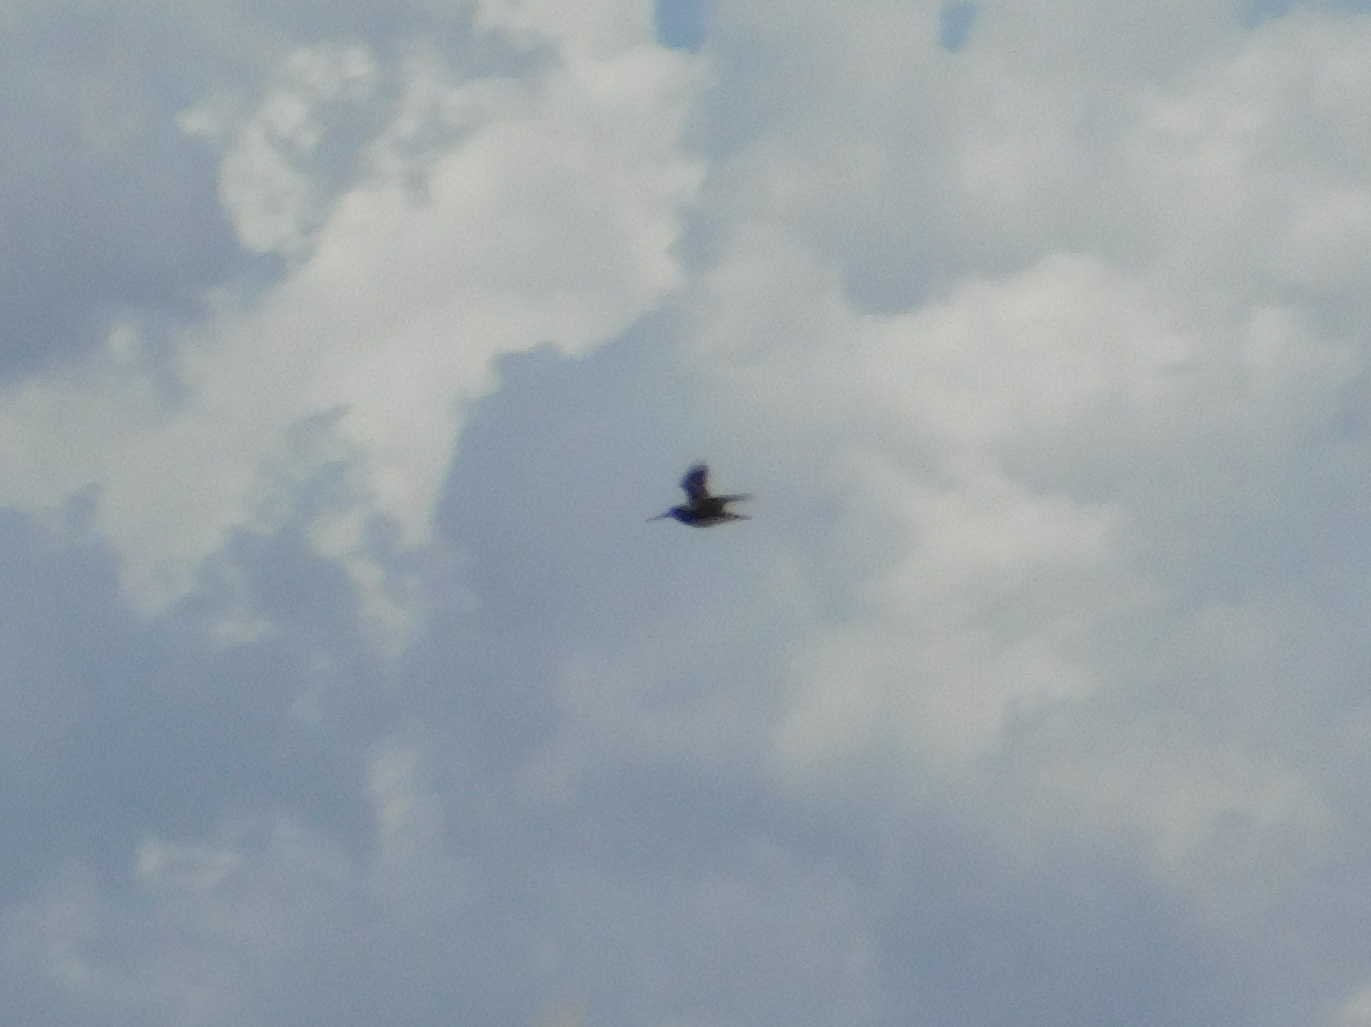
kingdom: Animalia
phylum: Chordata
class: Aves
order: Charadriiformes
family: Scolopacidae
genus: Gallinago
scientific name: Gallinago paraguaiae
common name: South american snipe
